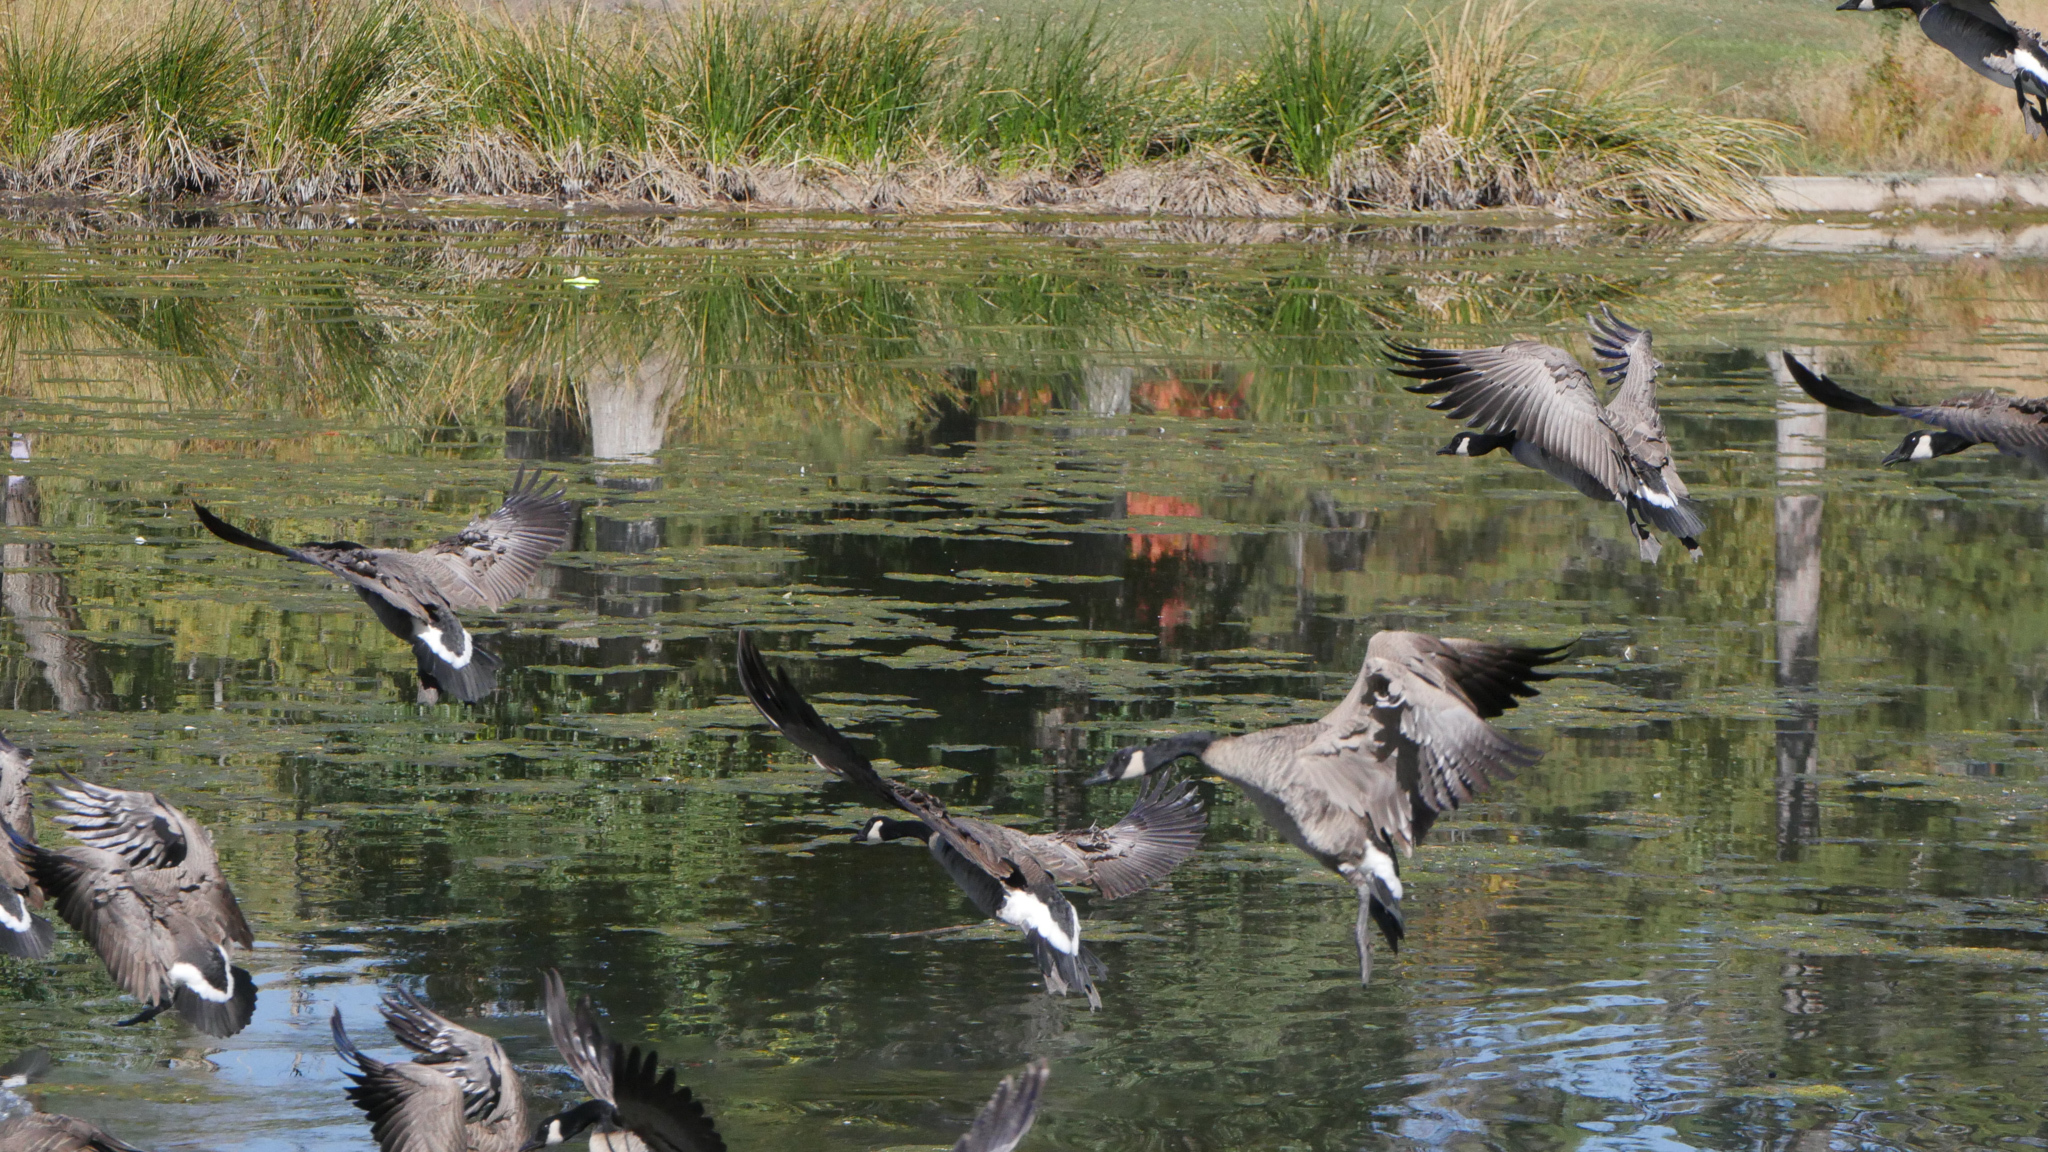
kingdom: Animalia
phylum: Chordata
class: Aves
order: Anseriformes
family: Anatidae
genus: Branta
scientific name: Branta canadensis
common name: Canada goose
